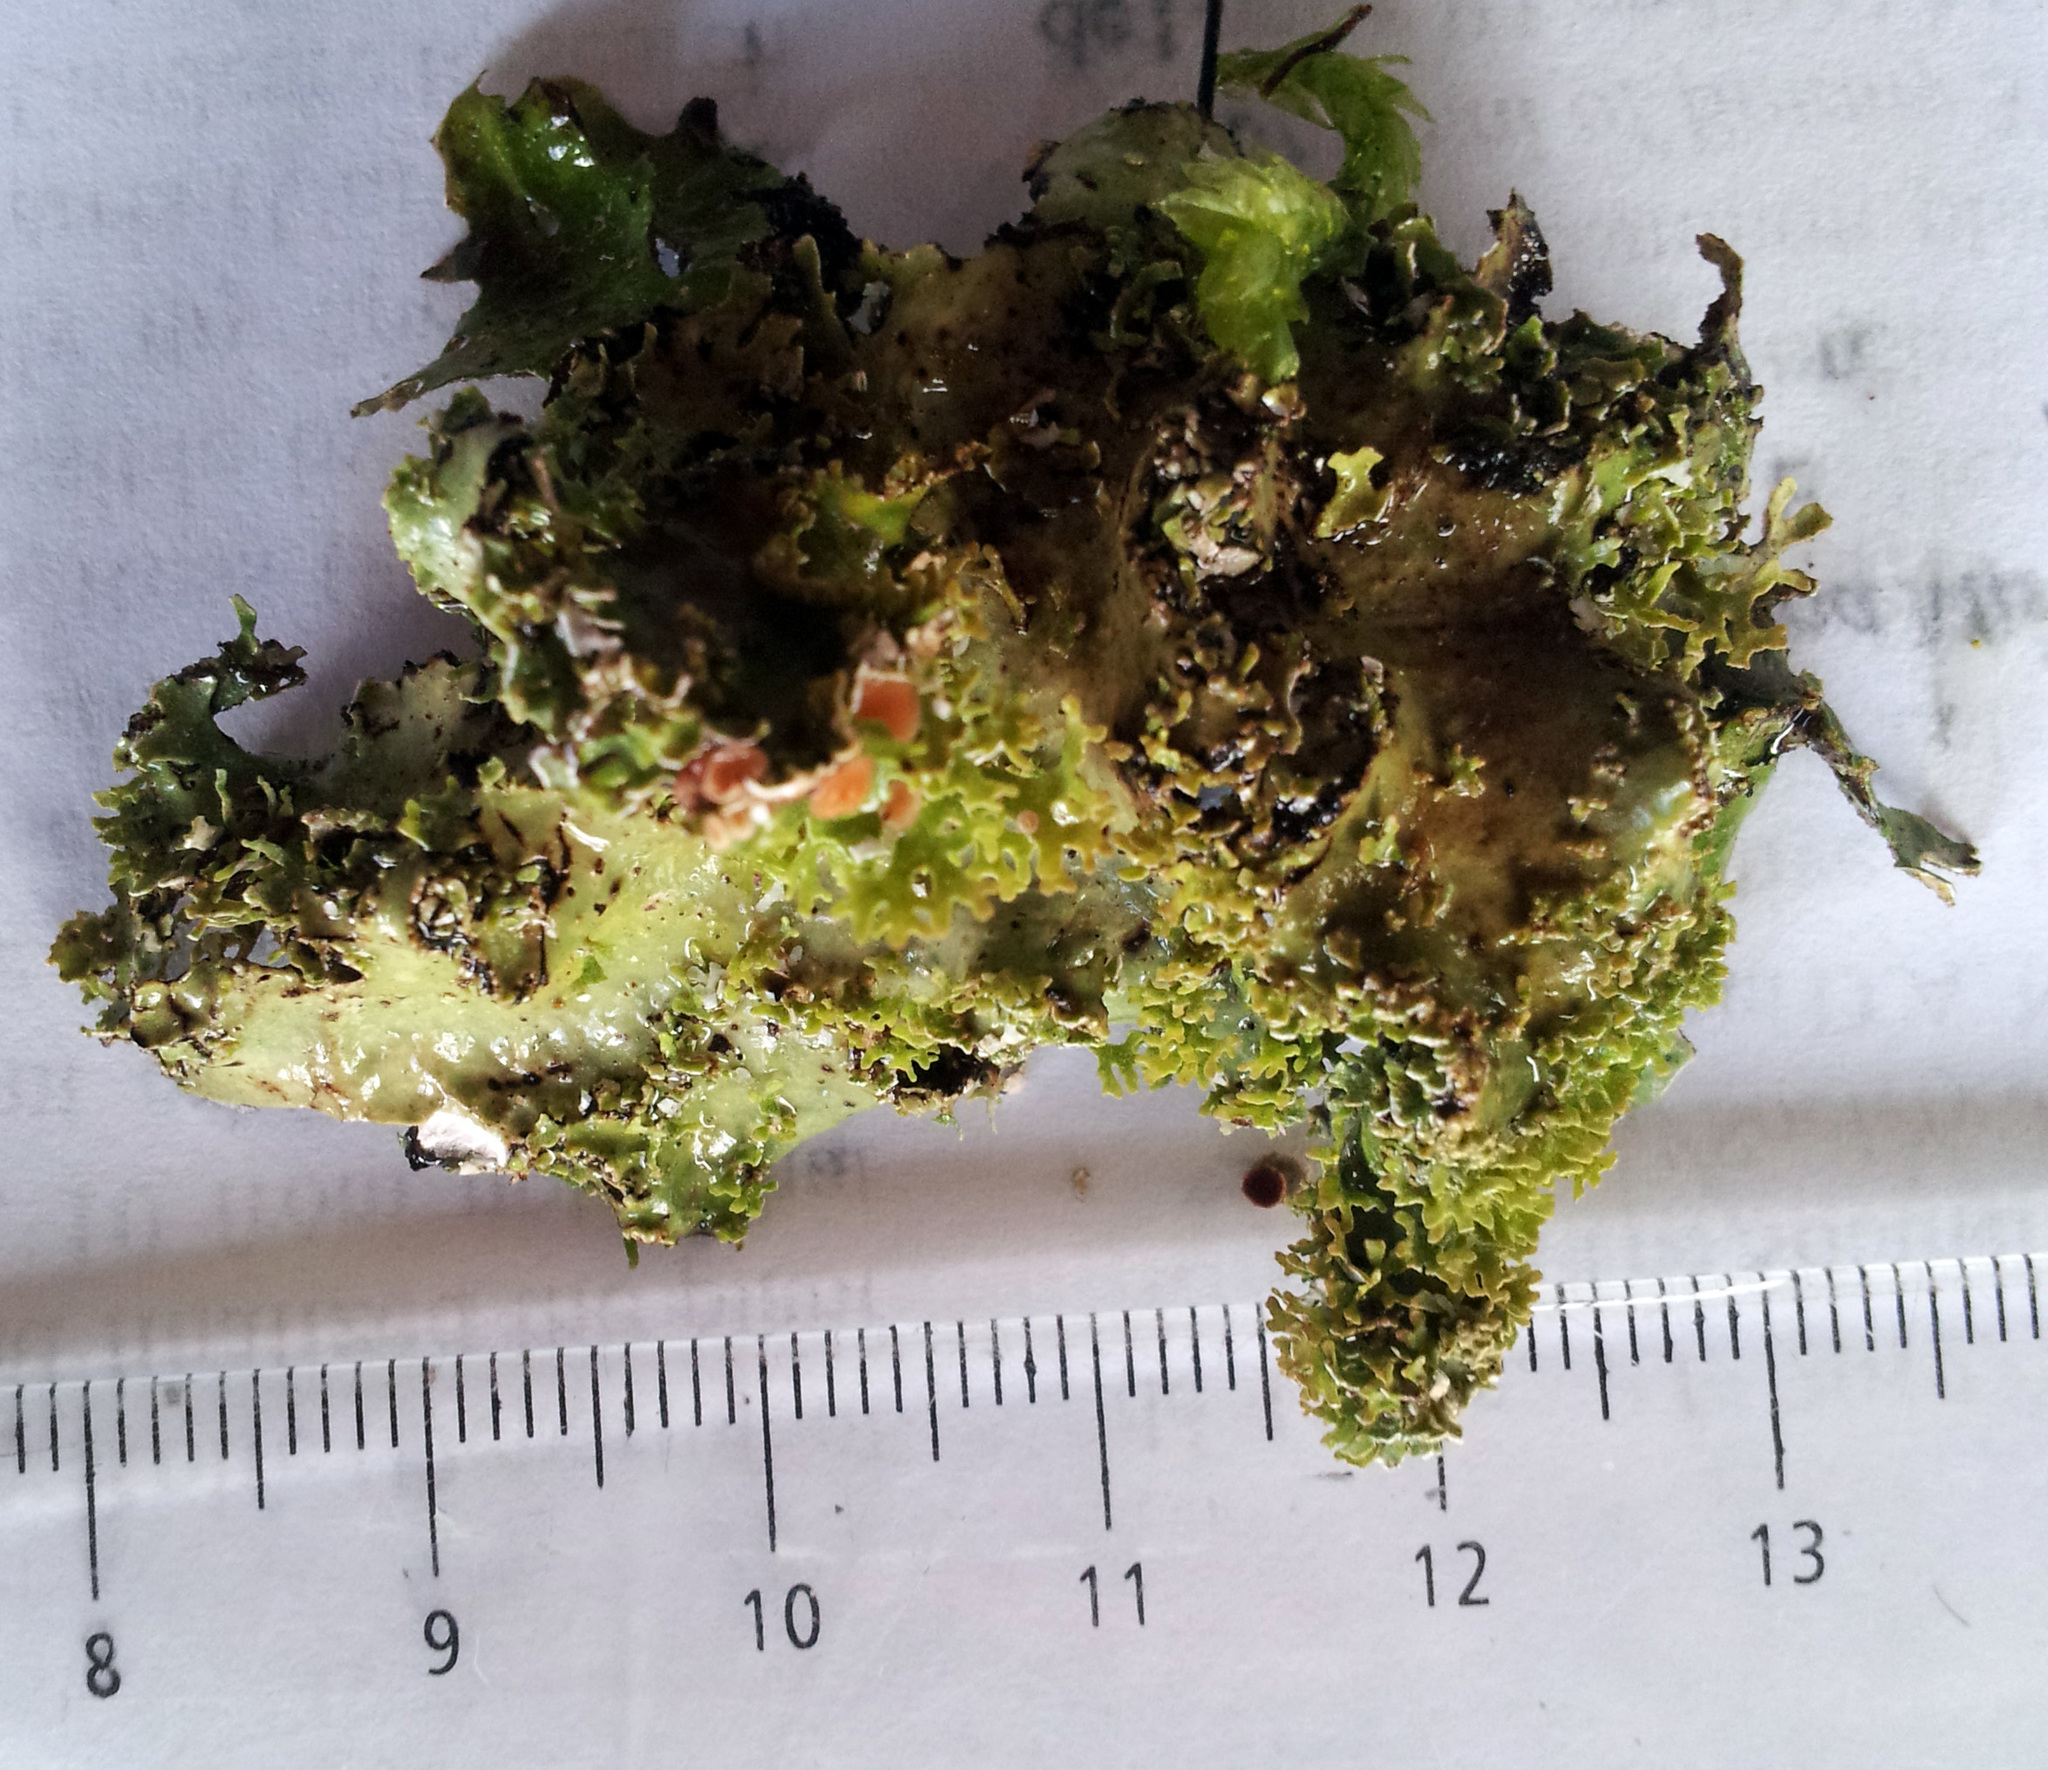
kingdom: Fungi
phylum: Ascomycota
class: Lecanoromycetes
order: Peltigerales
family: Lobariaceae
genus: Pseudocyphellaria
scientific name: Pseudocyphellaria corbettii
